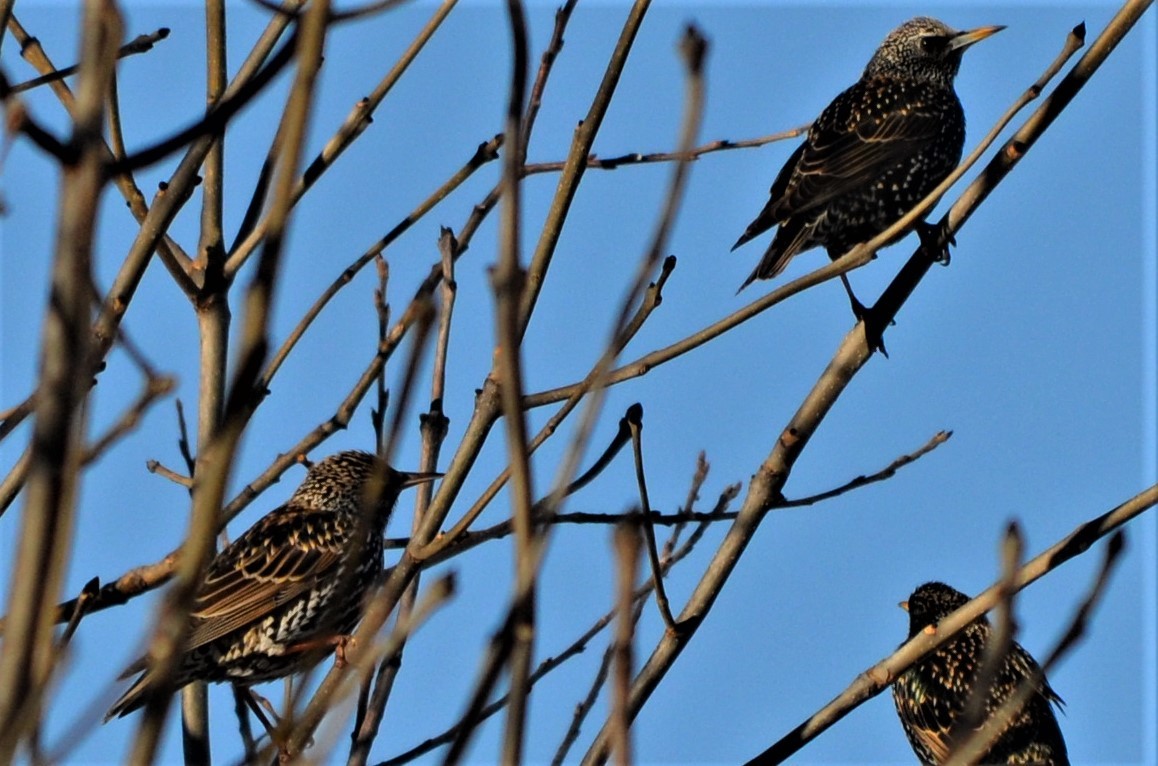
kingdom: Animalia
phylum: Chordata
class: Aves
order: Passeriformes
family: Sturnidae
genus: Sturnus
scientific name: Sturnus vulgaris
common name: Common starling
